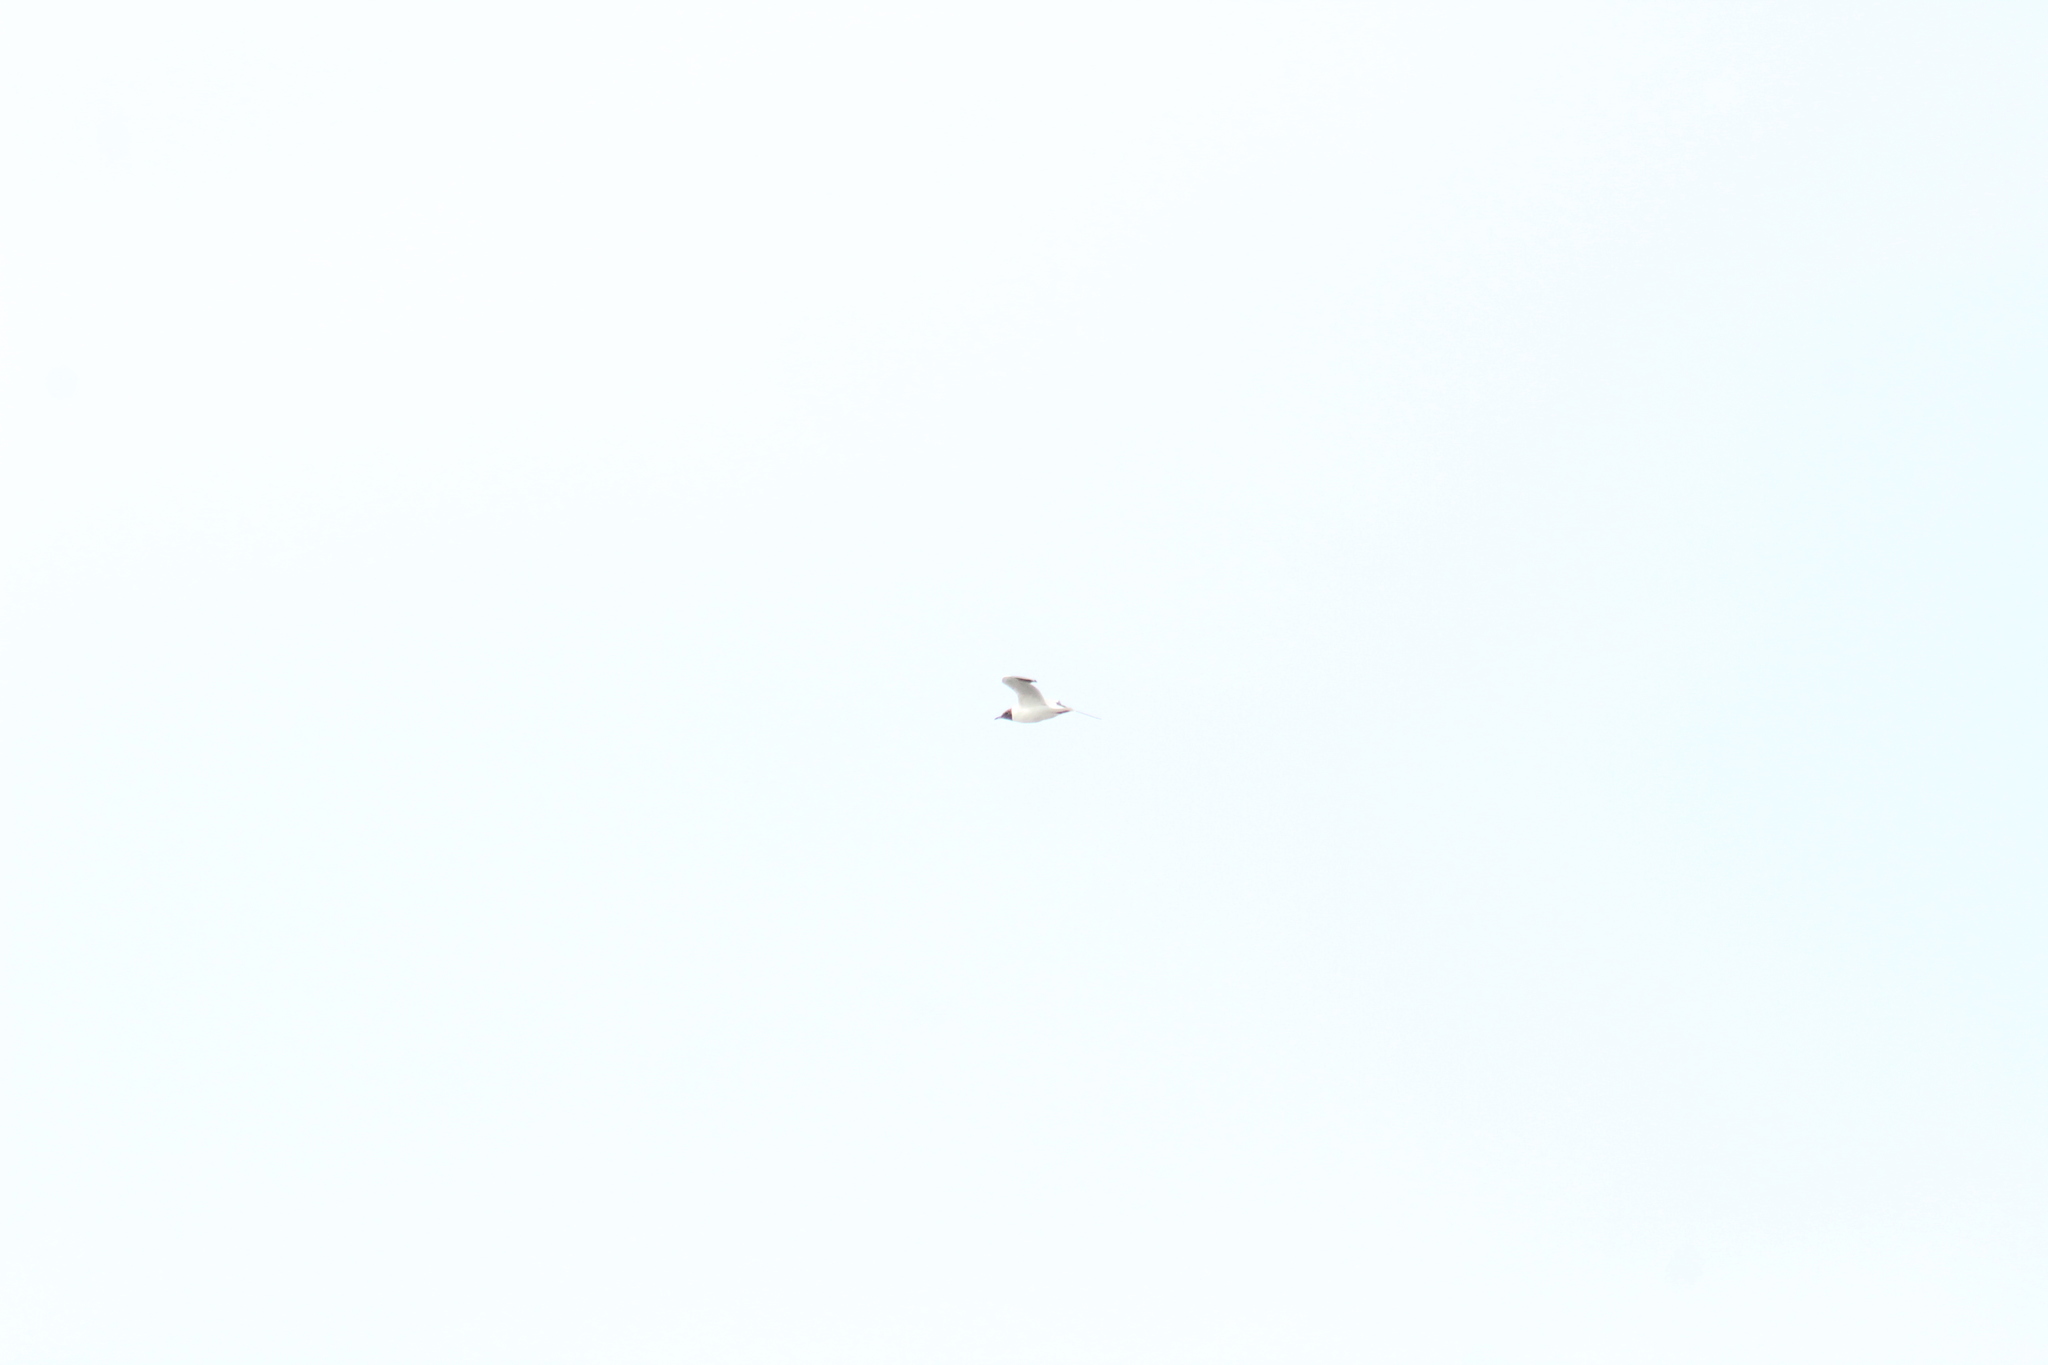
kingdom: Animalia
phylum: Chordata
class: Aves
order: Charadriiformes
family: Laridae
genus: Chroicocephalus
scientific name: Chroicocephalus ridibundus
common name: Black-headed gull
